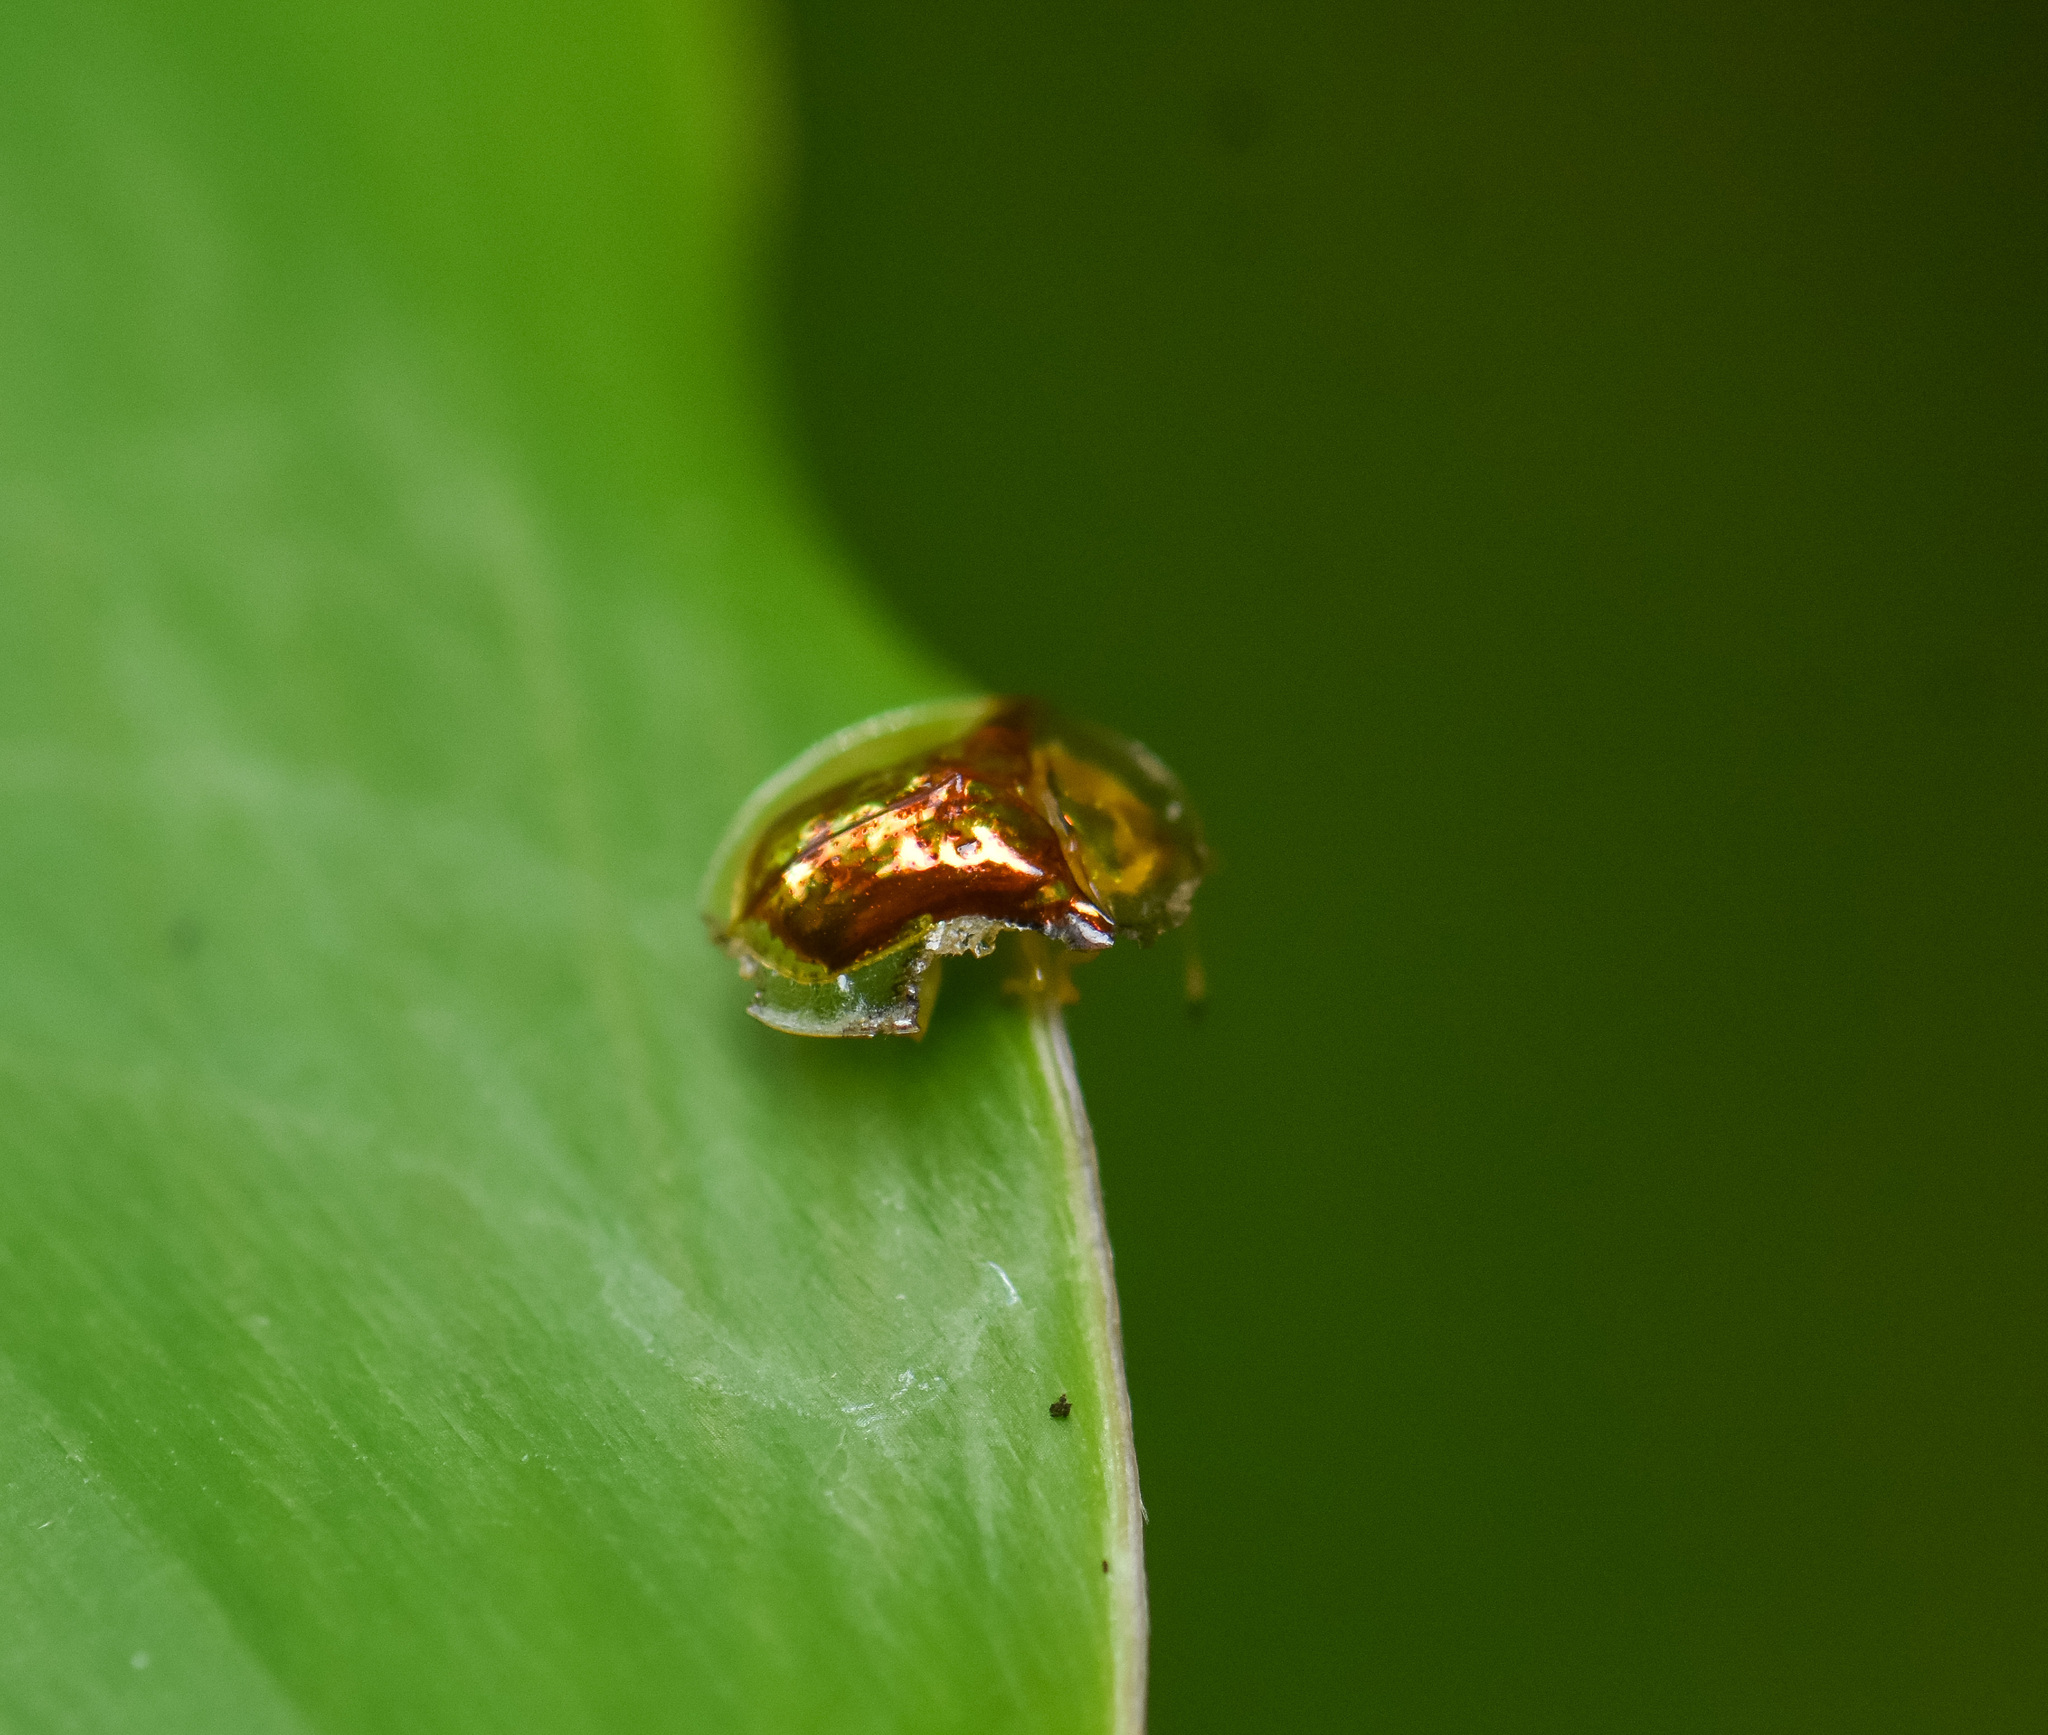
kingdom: Animalia
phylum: Arthropoda
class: Insecta
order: Coleoptera
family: Chrysomelidae
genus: Aspidimorpha
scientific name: Aspidimorpha furcata
